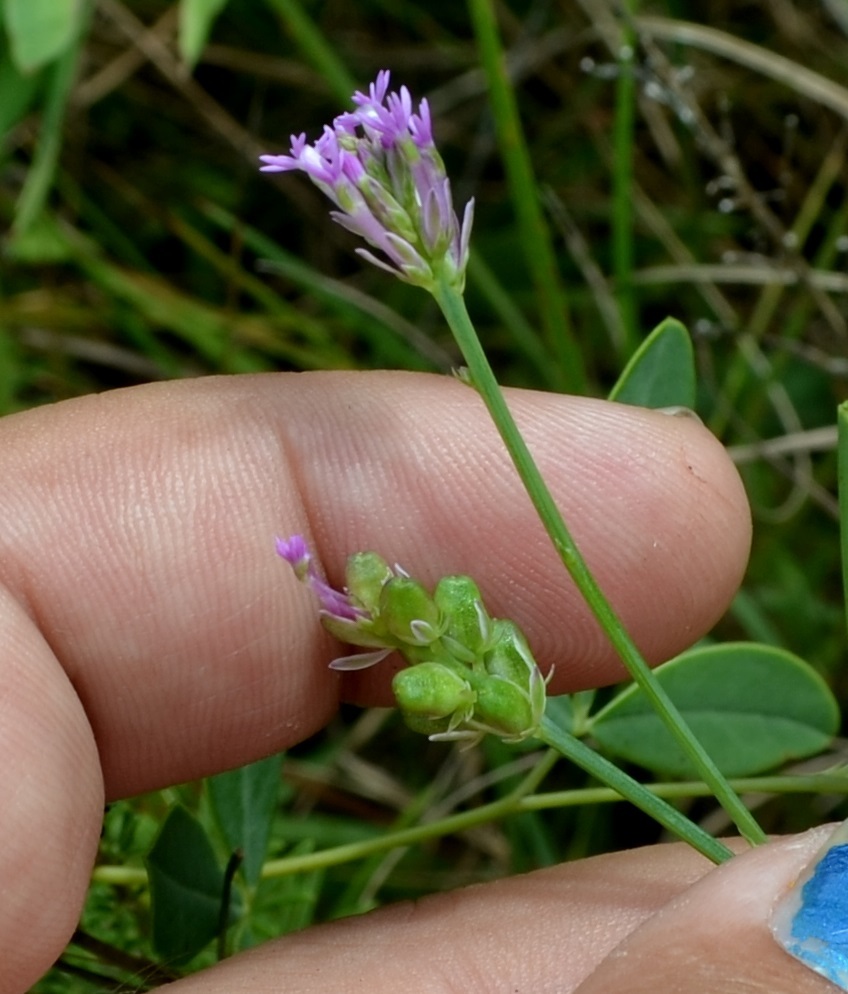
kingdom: Plantae
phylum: Tracheophyta
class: Magnoliopsida
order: Fabales
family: Polygalaceae
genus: Polygala
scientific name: Polygala incarnata
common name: Pink milkwort
